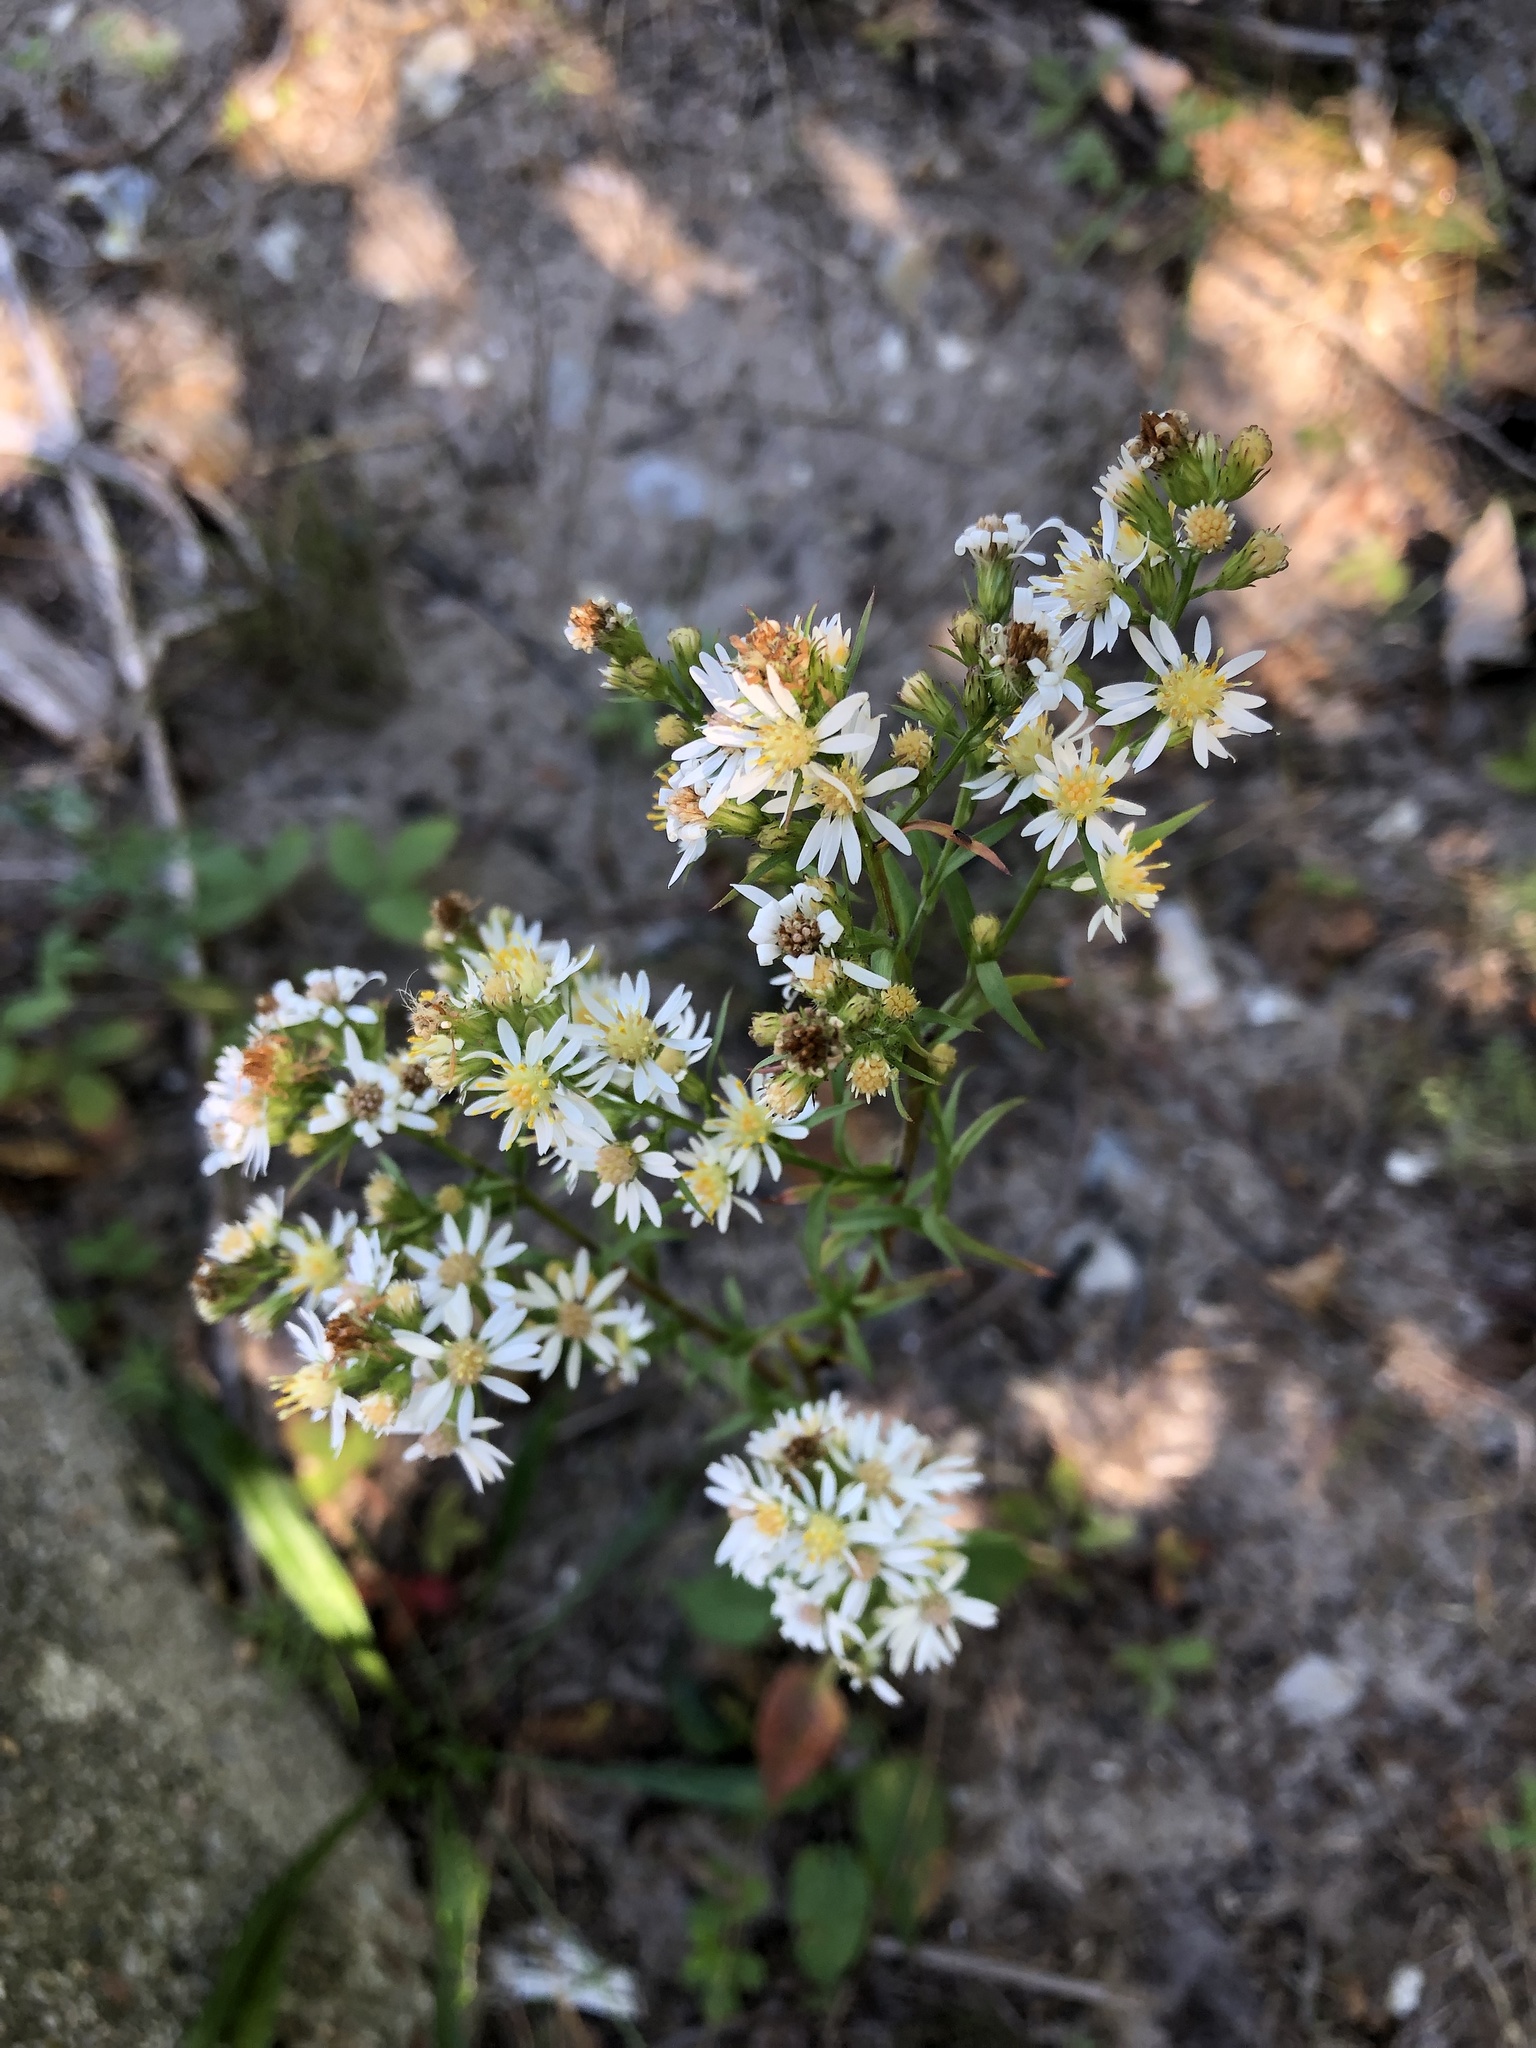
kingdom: Plantae
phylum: Tracheophyta
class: Magnoliopsida
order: Asterales
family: Asteraceae
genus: Symphyotrichum
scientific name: Symphyotrichum urophyllum
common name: Arrow-leaved aster
